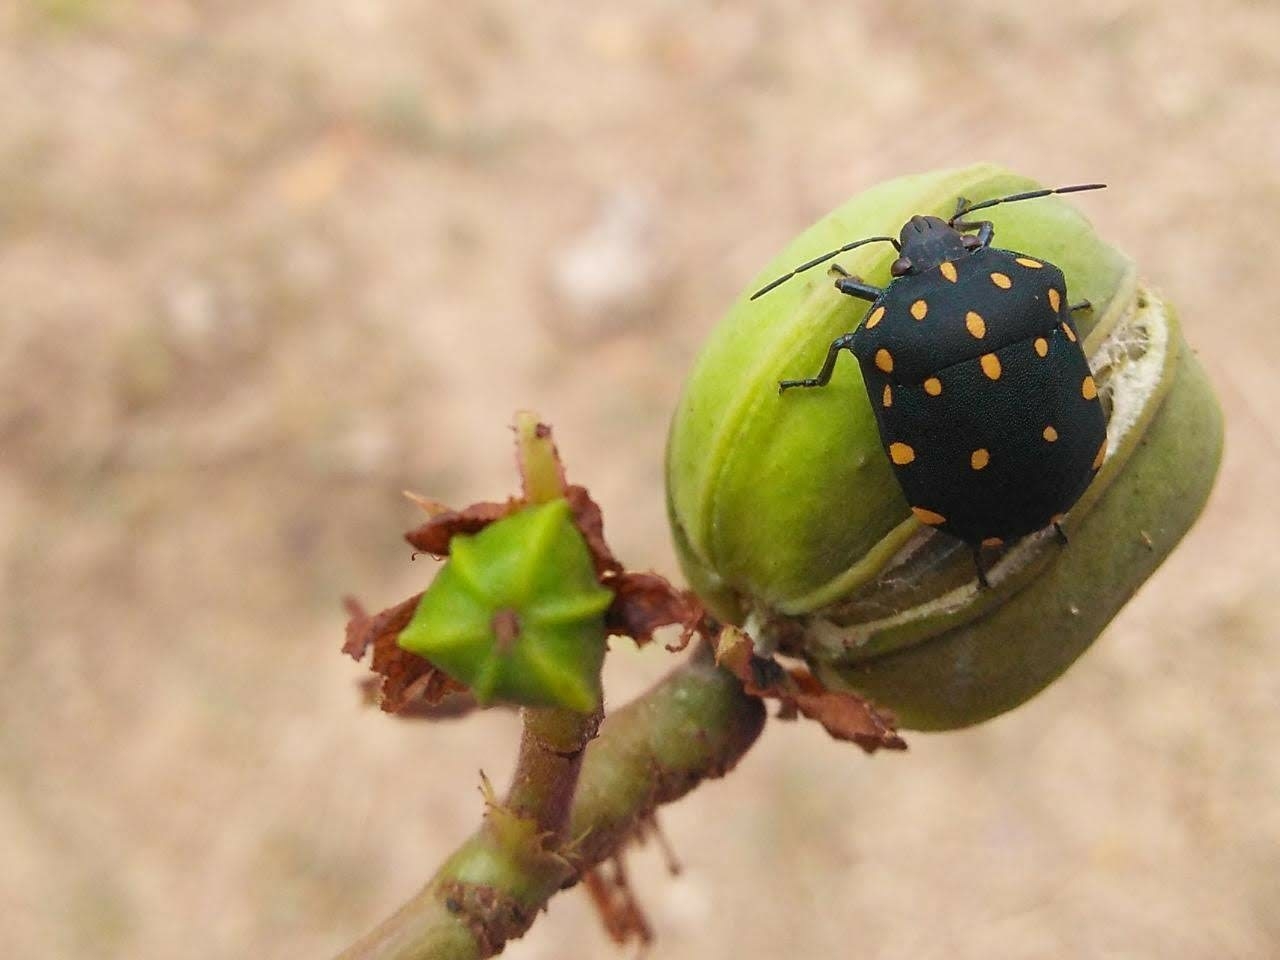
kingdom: Animalia
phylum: Arthropoda
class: Insecta
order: Hemiptera
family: Scutelleridae
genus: Pachycoris
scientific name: Pachycoris torridus
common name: Torrid jewel bug
